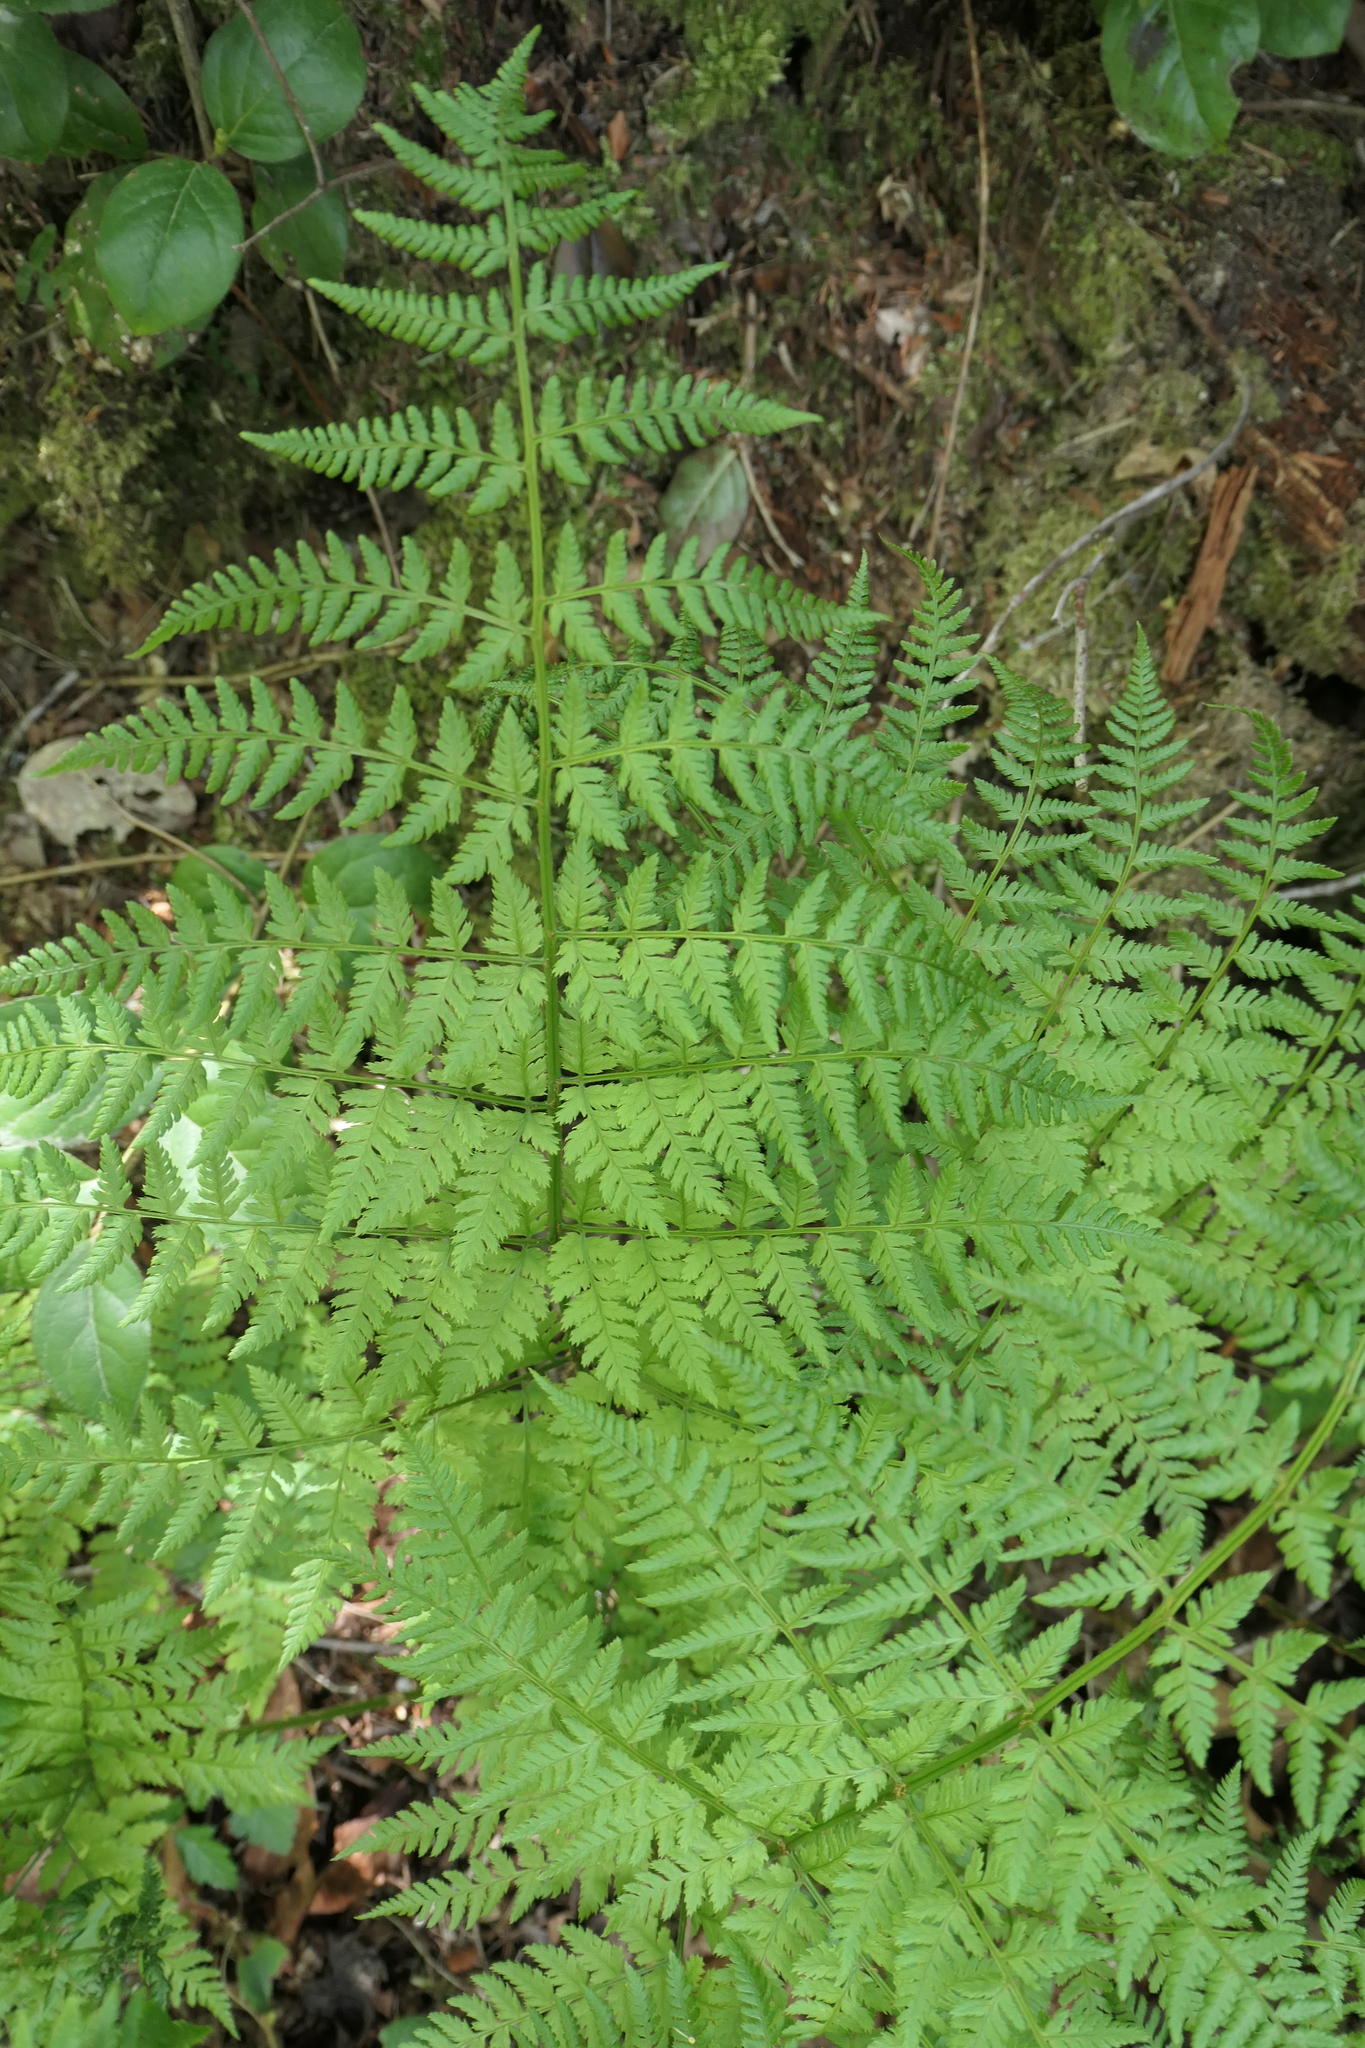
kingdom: Plantae
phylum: Tracheophyta
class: Polypodiopsida
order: Polypodiales
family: Dryopteridaceae
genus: Dryopteris
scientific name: Dryopteris expansa
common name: Northern buckler fern
